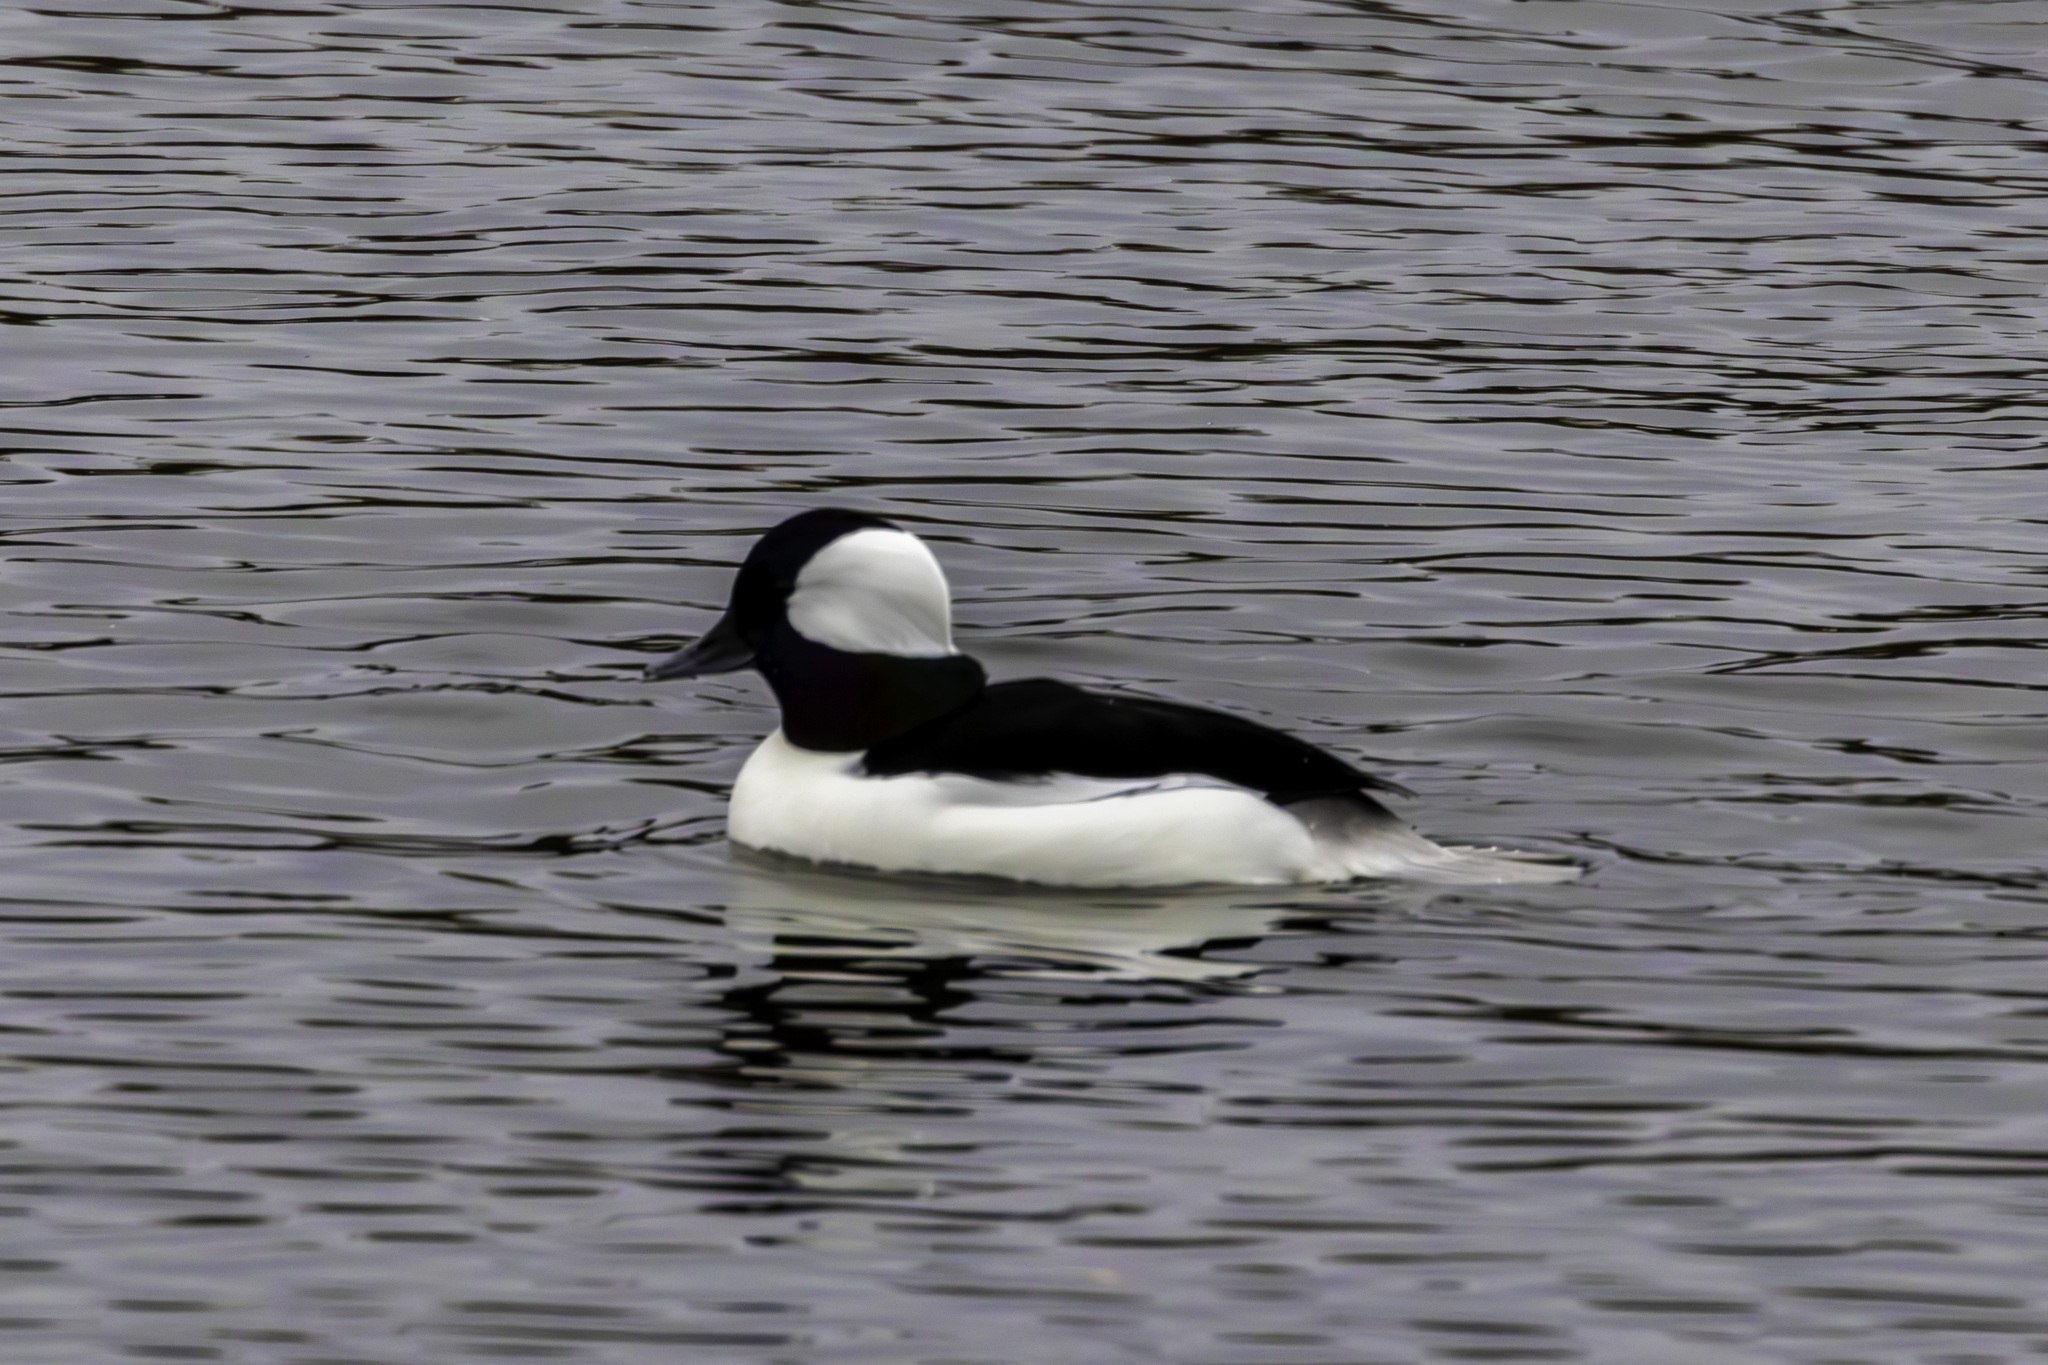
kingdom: Animalia
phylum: Chordata
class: Aves
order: Anseriformes
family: Anatidae
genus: Bucephala
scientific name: Bucephala albeola
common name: Bufflehead
